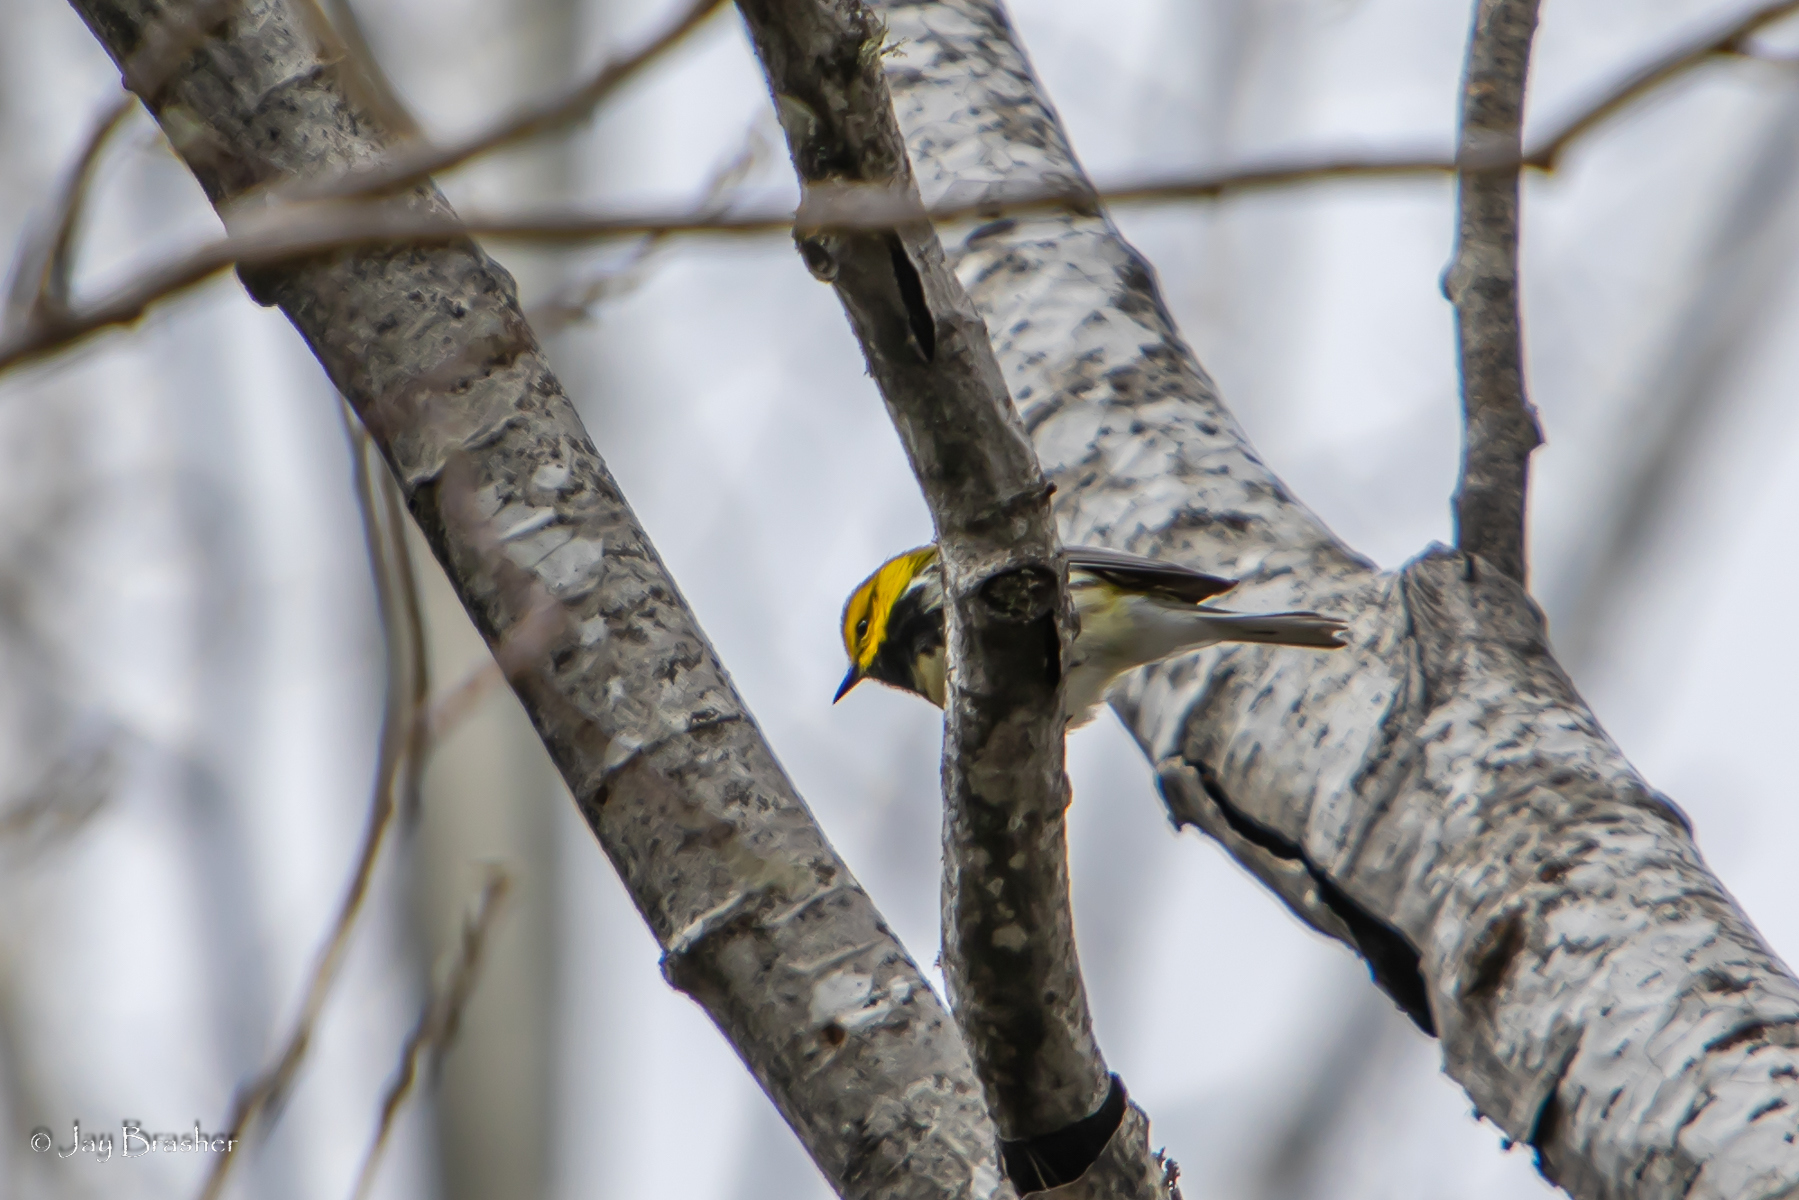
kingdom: Animalia
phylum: Chordata
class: Aves
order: Passeriformes
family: Parulidae
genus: Setophaga
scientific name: Setophaga virens
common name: Black-throated green warbler
